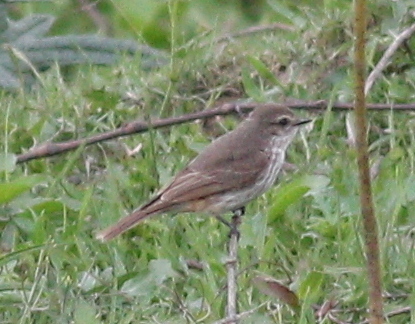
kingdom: Animalia
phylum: Chordata
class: Aves
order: Passeriformes
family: Tyrannidae
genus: Pyrocephalus
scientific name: Pyrocephalus rubinus
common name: Vermilion flycatcher
